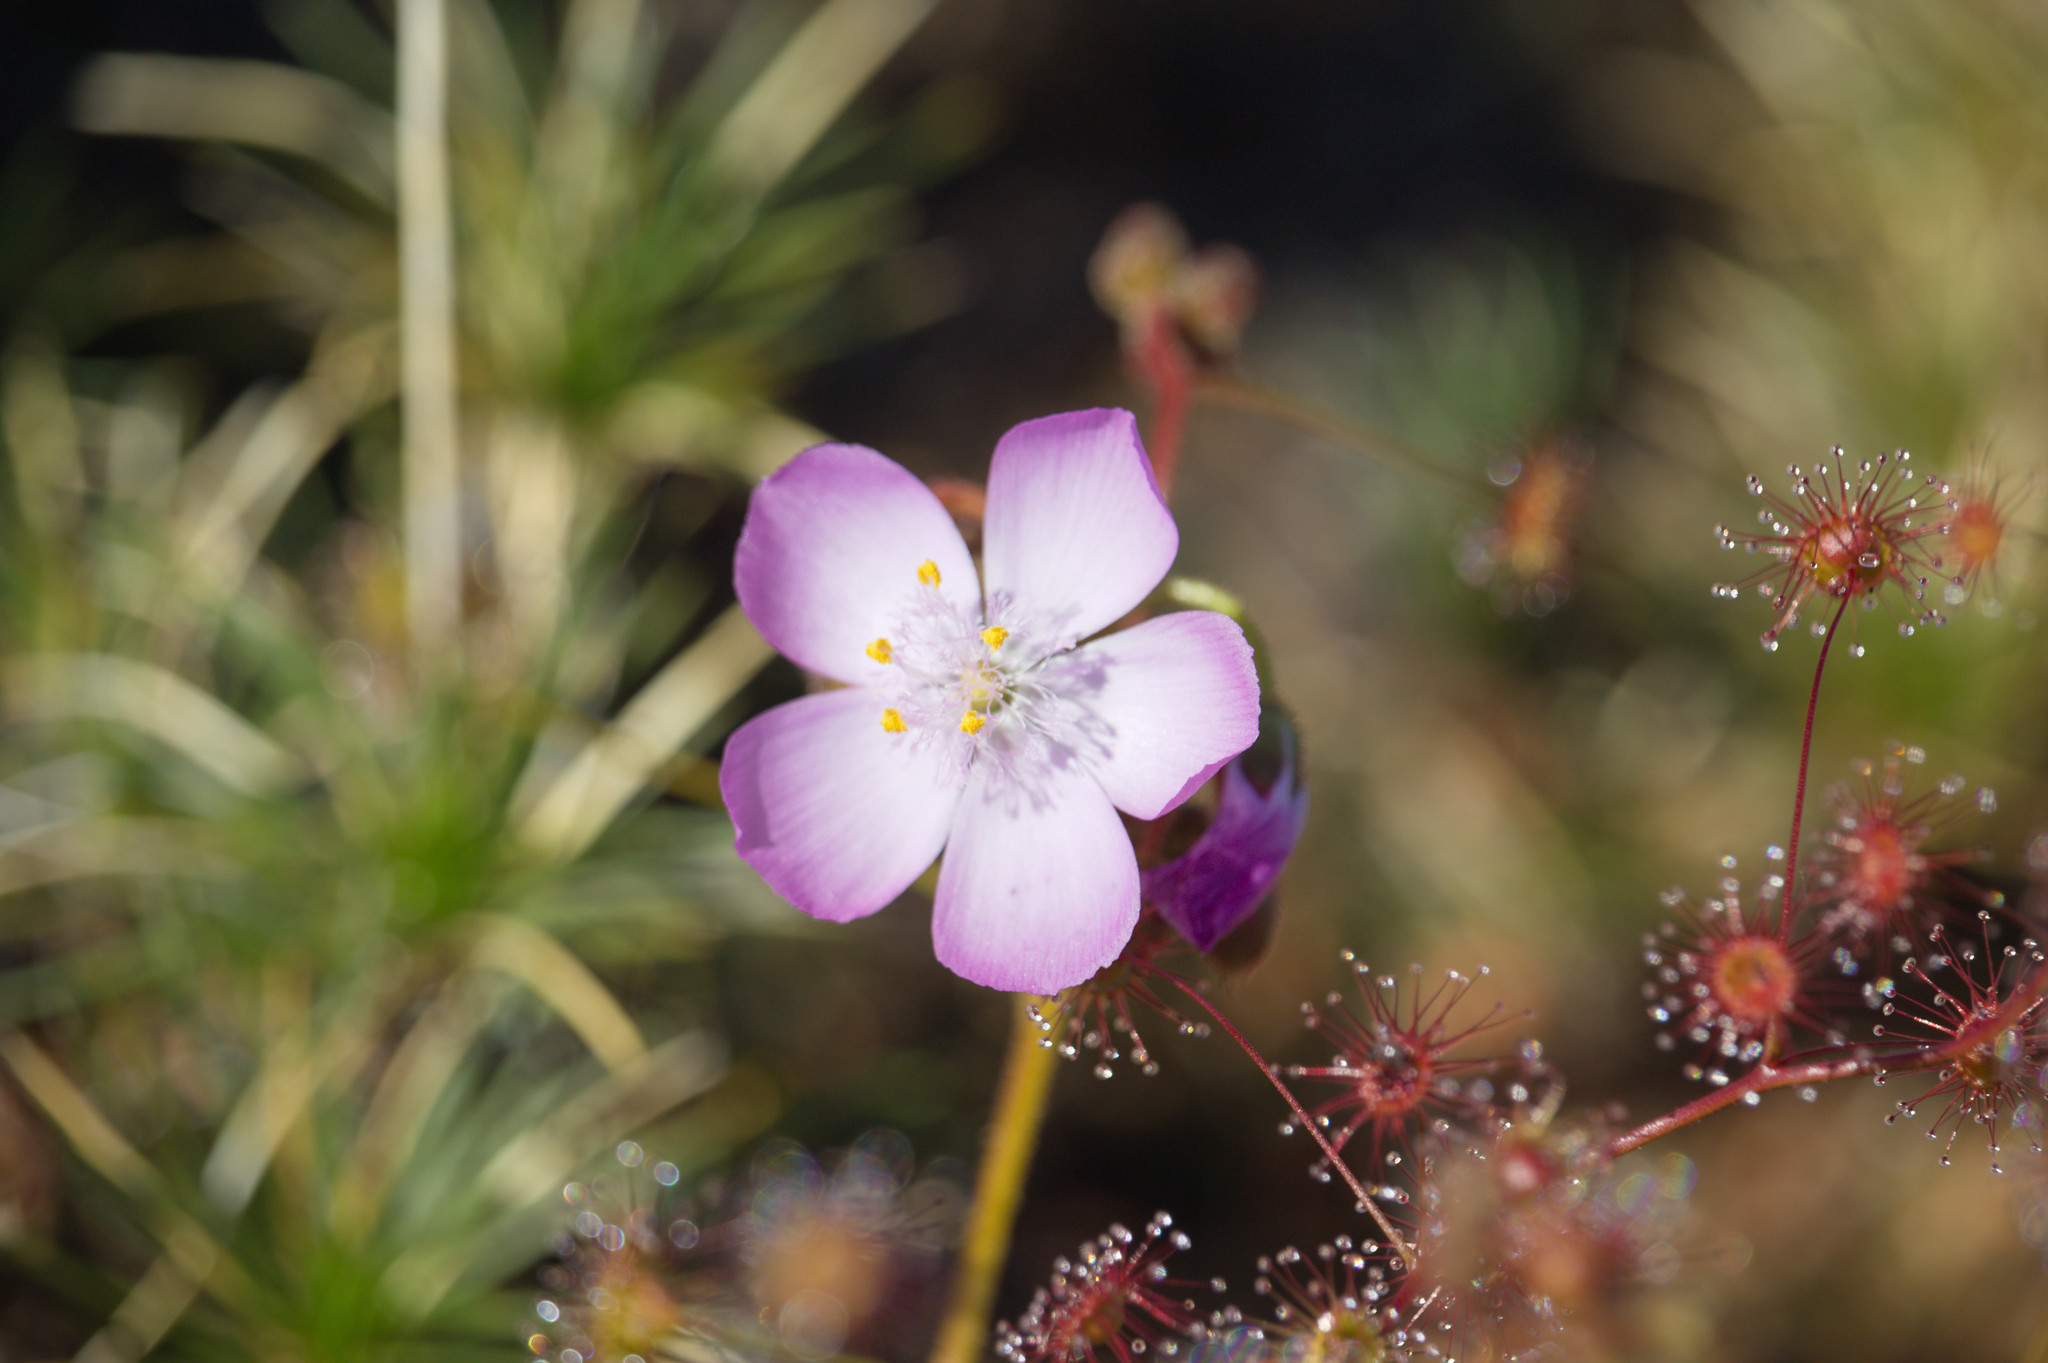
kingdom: Plantae
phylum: Tracheophyta
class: Magnoliopsida
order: Caryophyllales
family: Droseraceae
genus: Drosera
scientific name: Drosera stricticaulis
